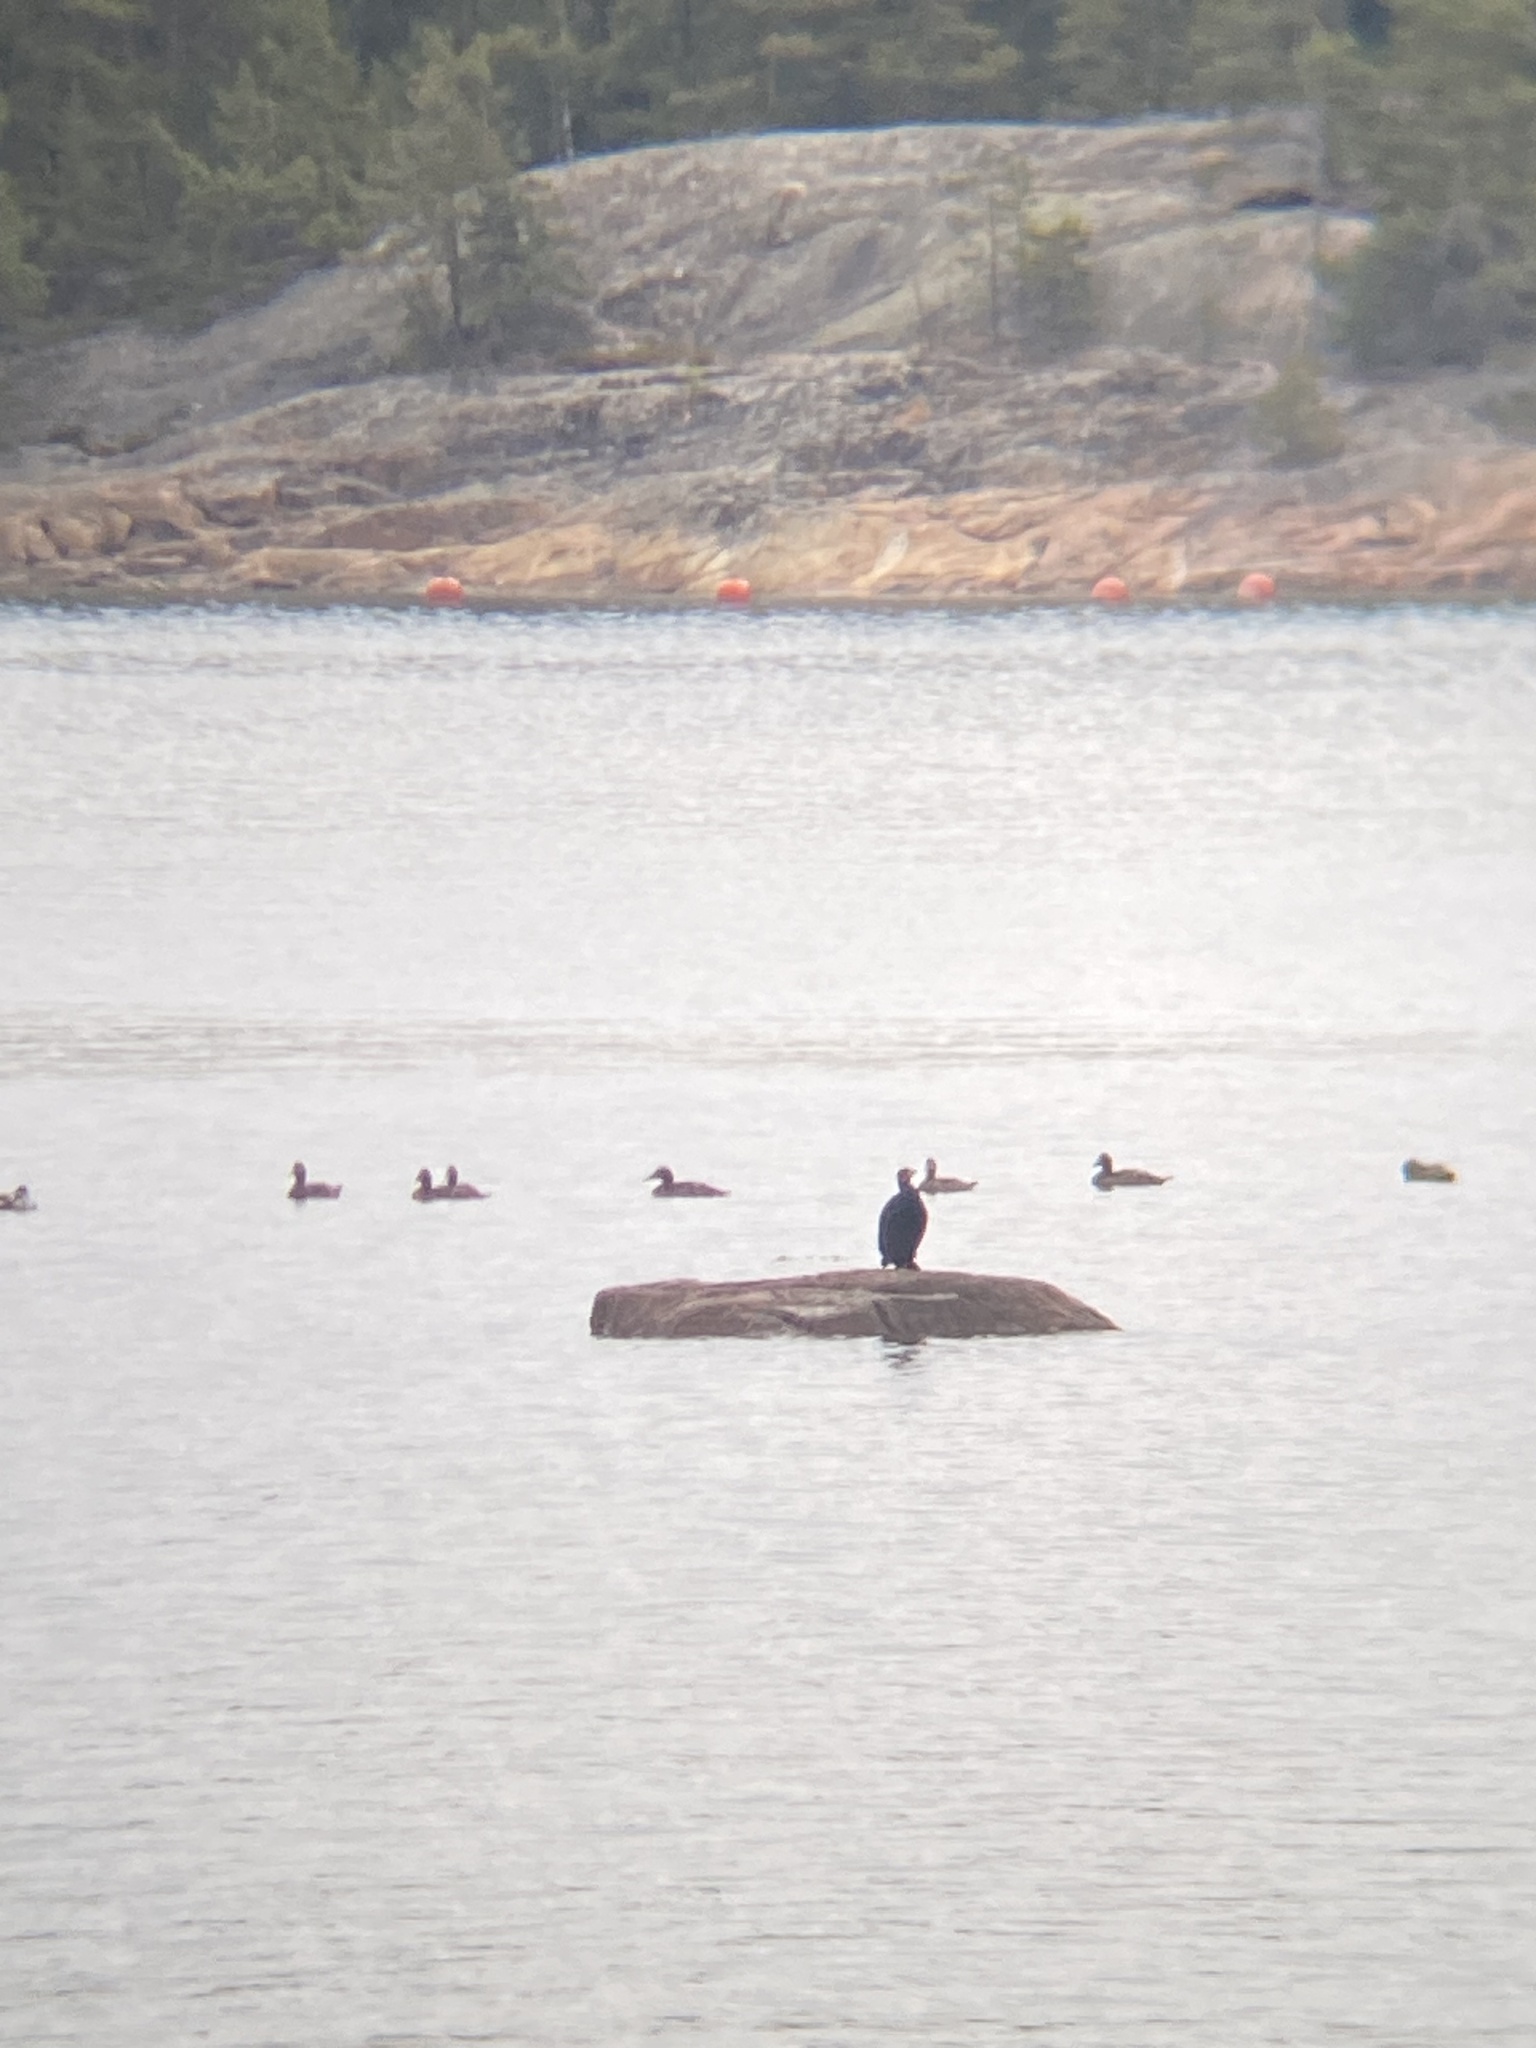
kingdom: Animalia
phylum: Chordata
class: Aves
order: Suliformes
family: Phalacrocoracidae
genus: Phalacrocorax
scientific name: Phalacrocorax carbo
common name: Great cormorant
